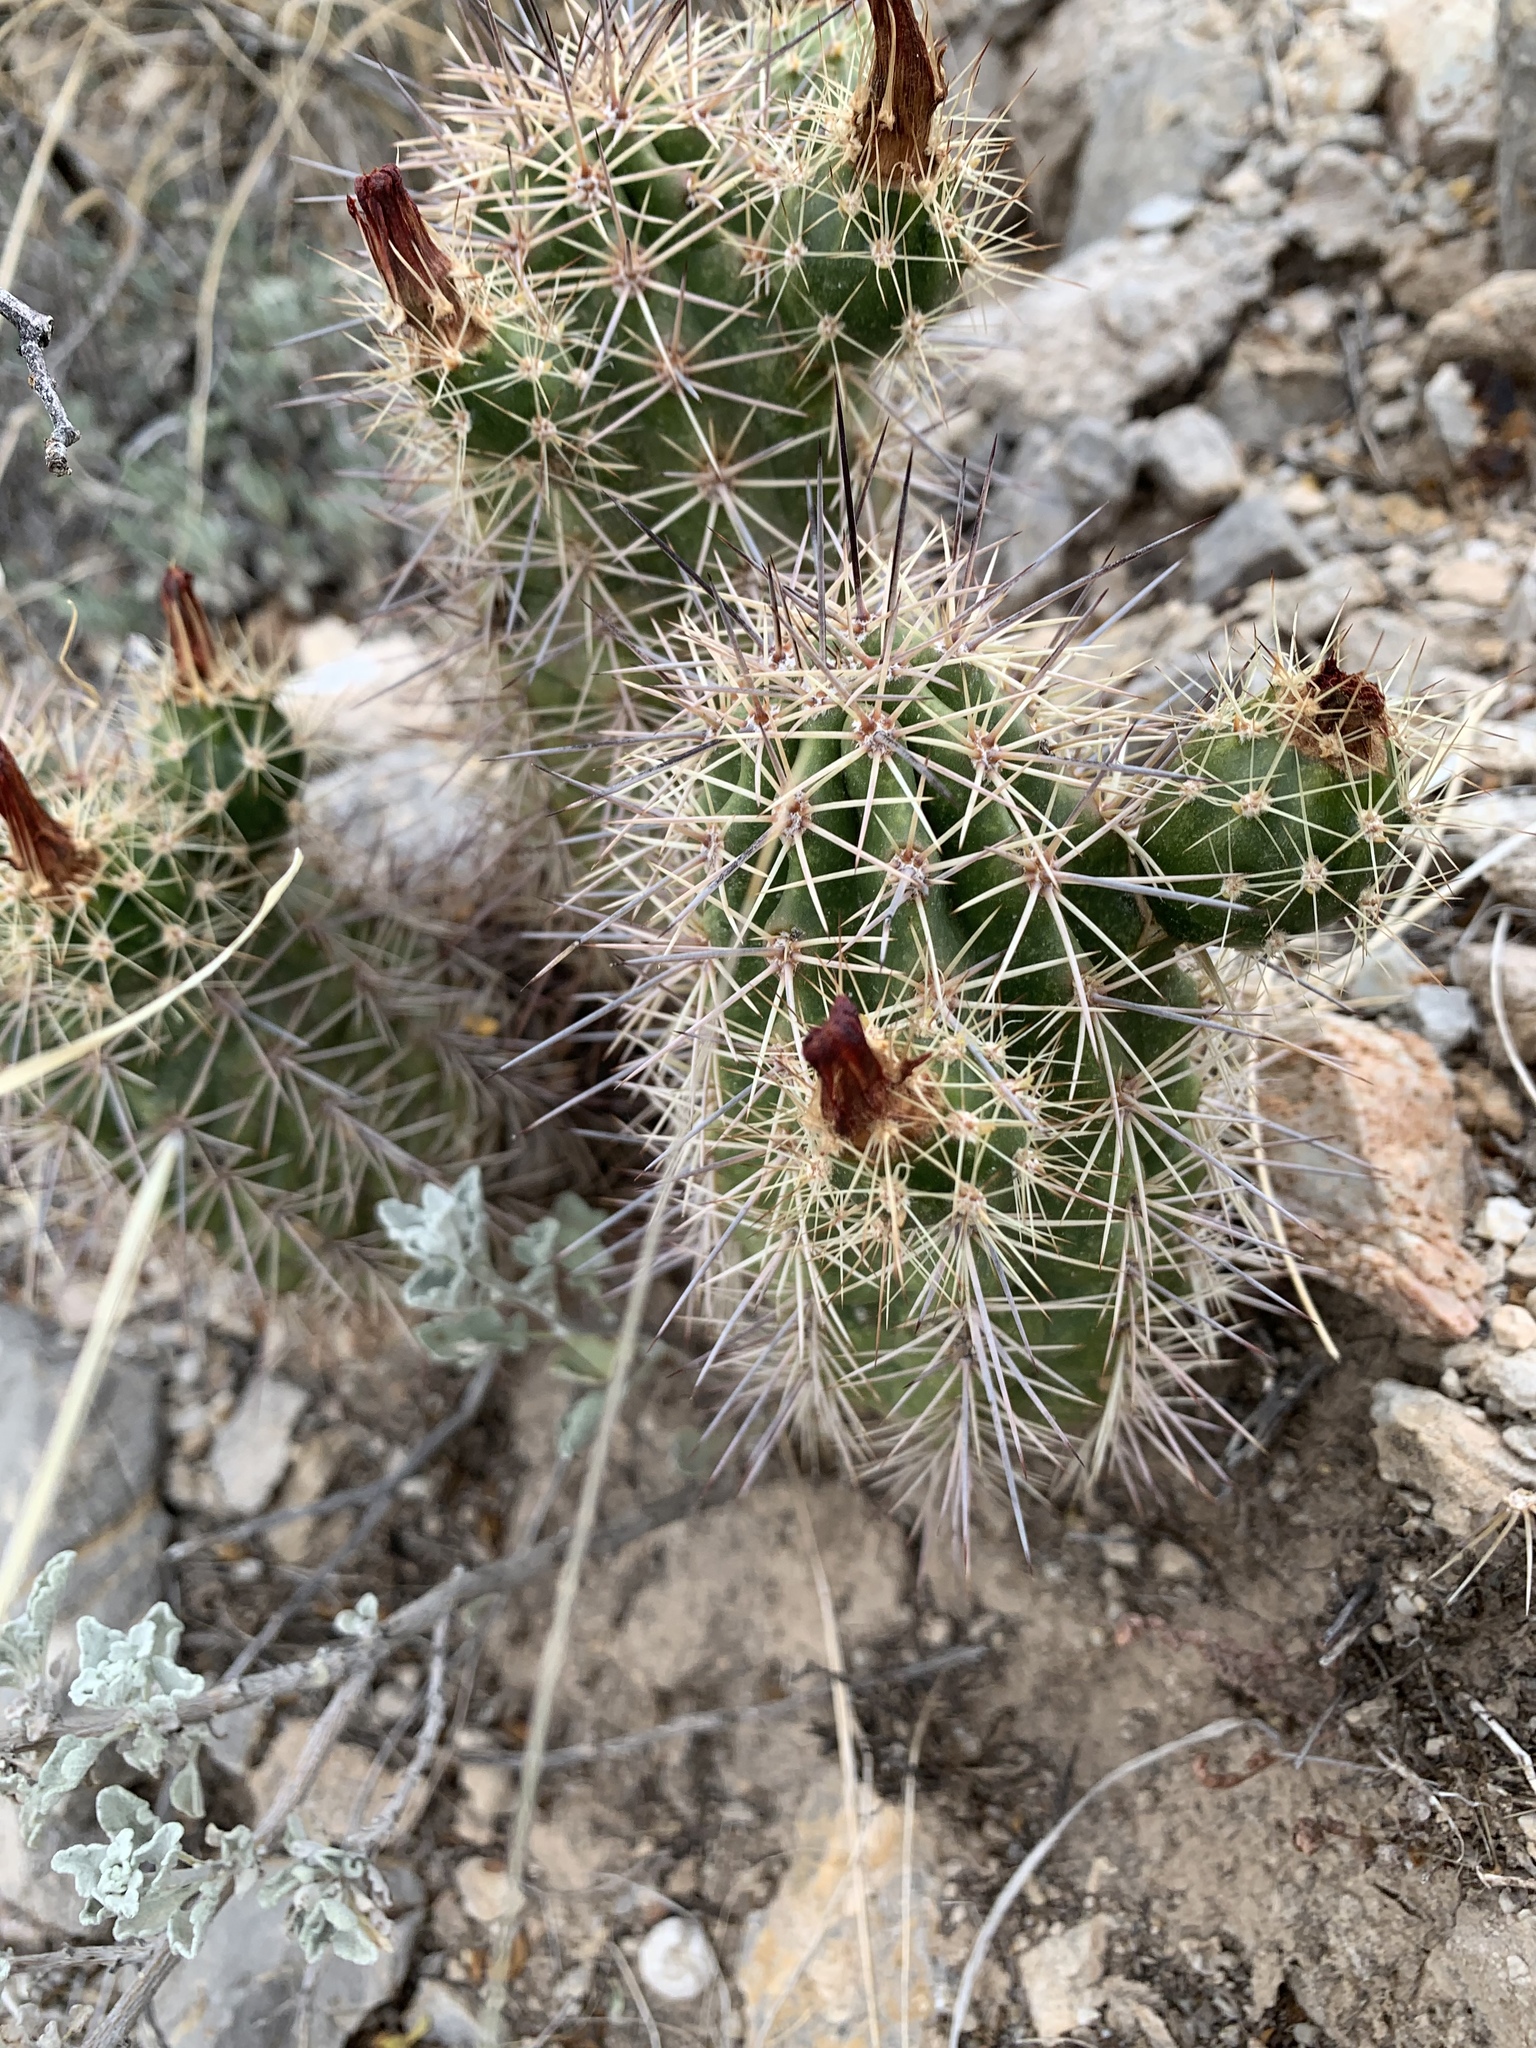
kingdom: Plantae
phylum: Tracheophyta
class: Magnoliopsida
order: Caryophyllales
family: Cactaceae
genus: Echinocereus
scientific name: Echinocereus coccineus
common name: Scarlet hedgehog cactus
